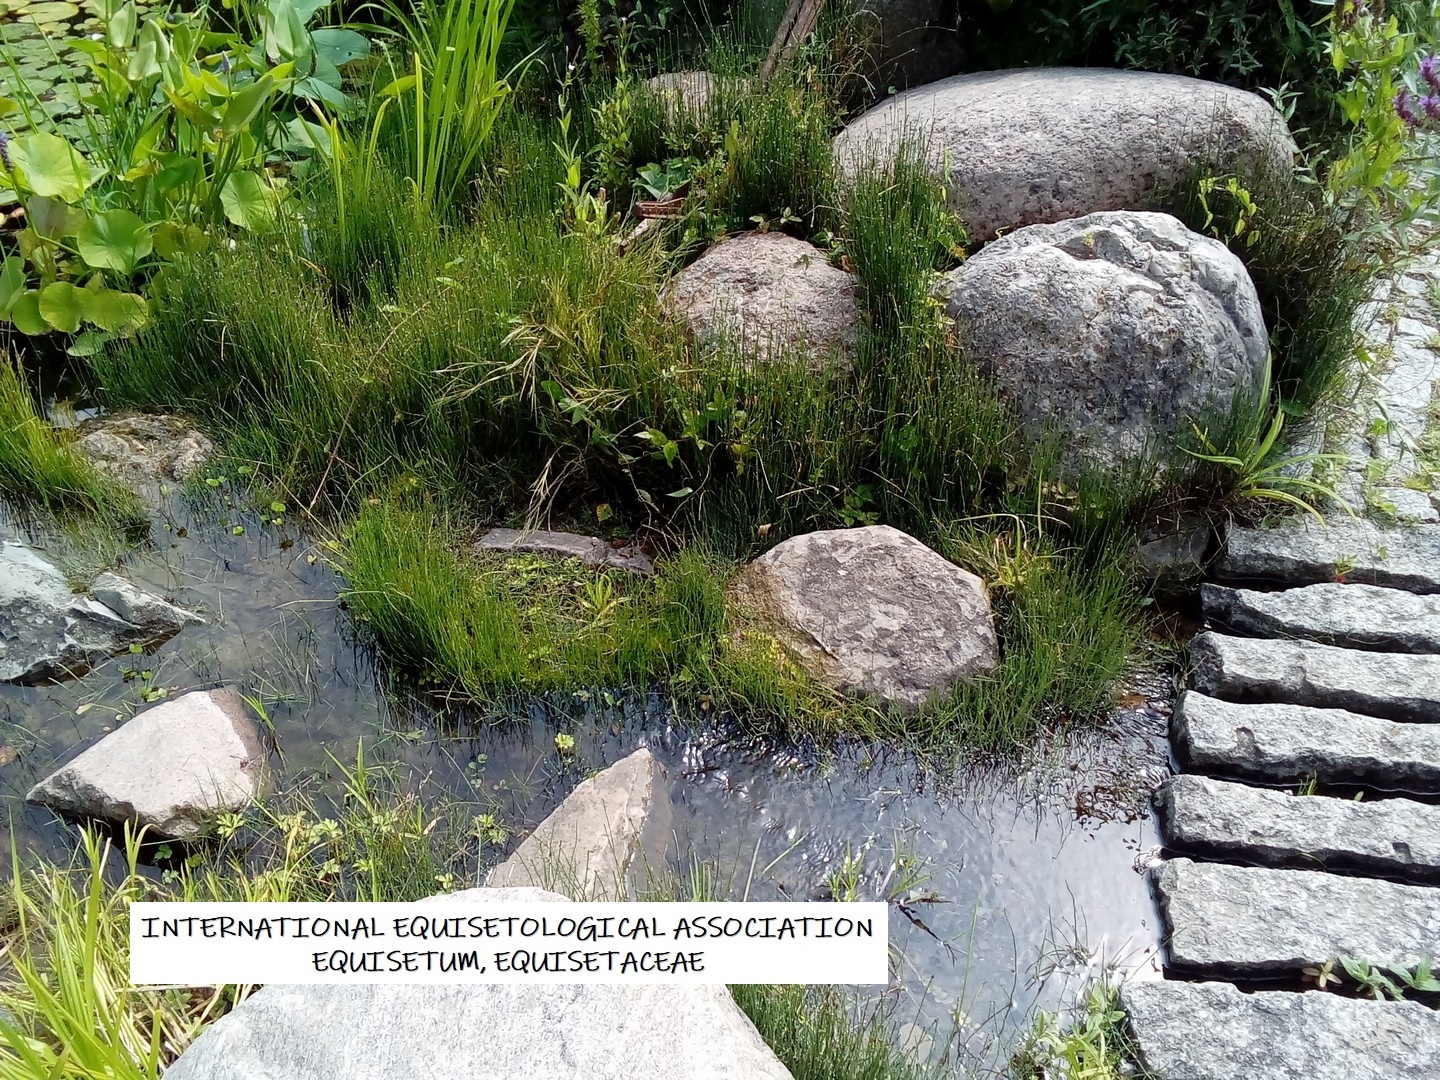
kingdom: Plantae
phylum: Tracheophyta
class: Polypodiopsida
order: Equisetales
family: Equisetaceae
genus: Equisetum
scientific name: Equisetum variegatum
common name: Variegated horsetail
